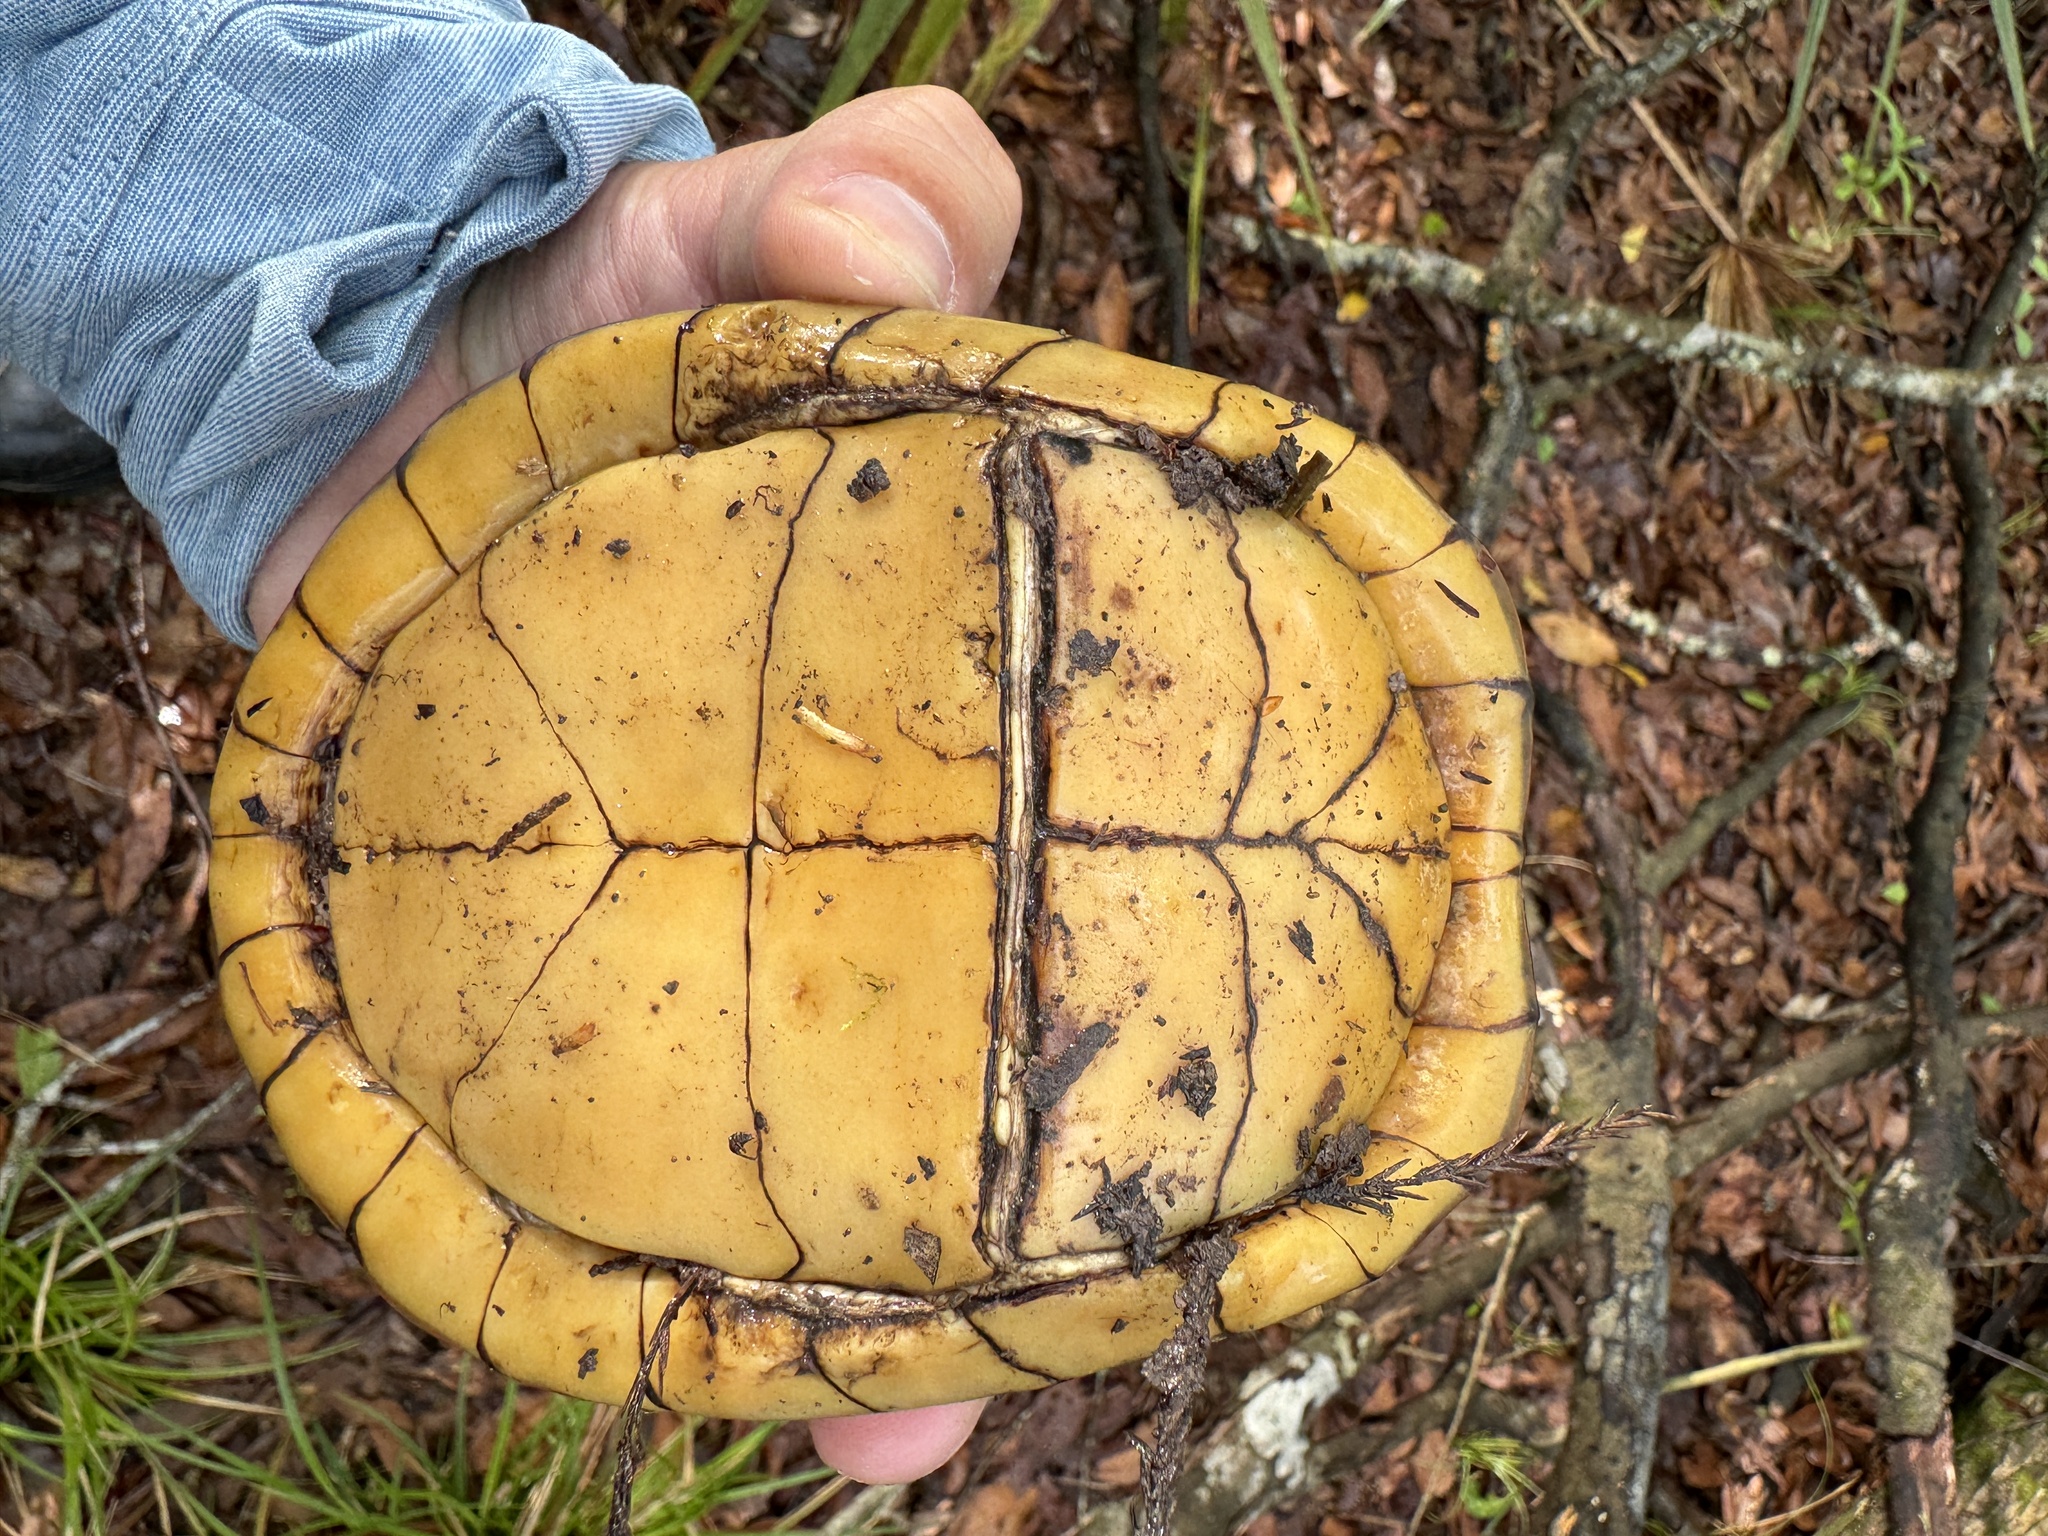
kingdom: Animalia
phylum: Chordata
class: Testudines
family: Emydidae
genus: Terrapene
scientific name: Terrapene carolina
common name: Common box turtle
